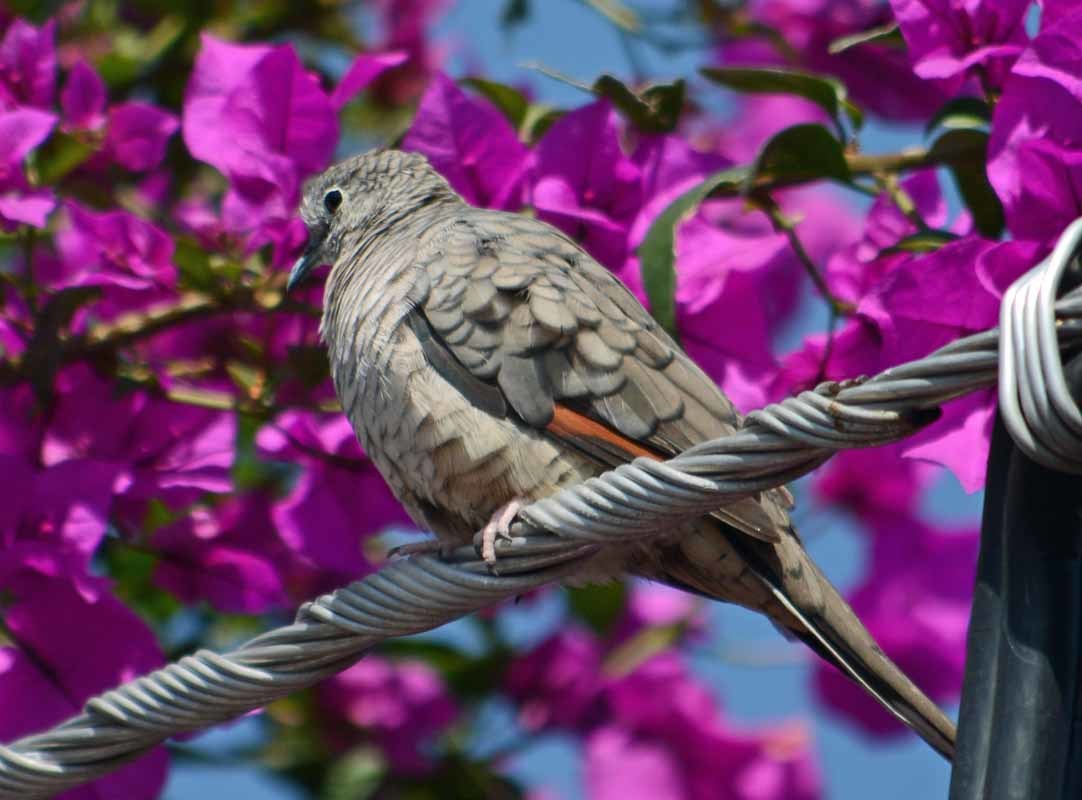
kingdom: Animalia
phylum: Chordata
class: Aves
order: Columbiformes
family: Columbidae
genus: Columbina
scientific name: Columbina inca
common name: Inca dove
